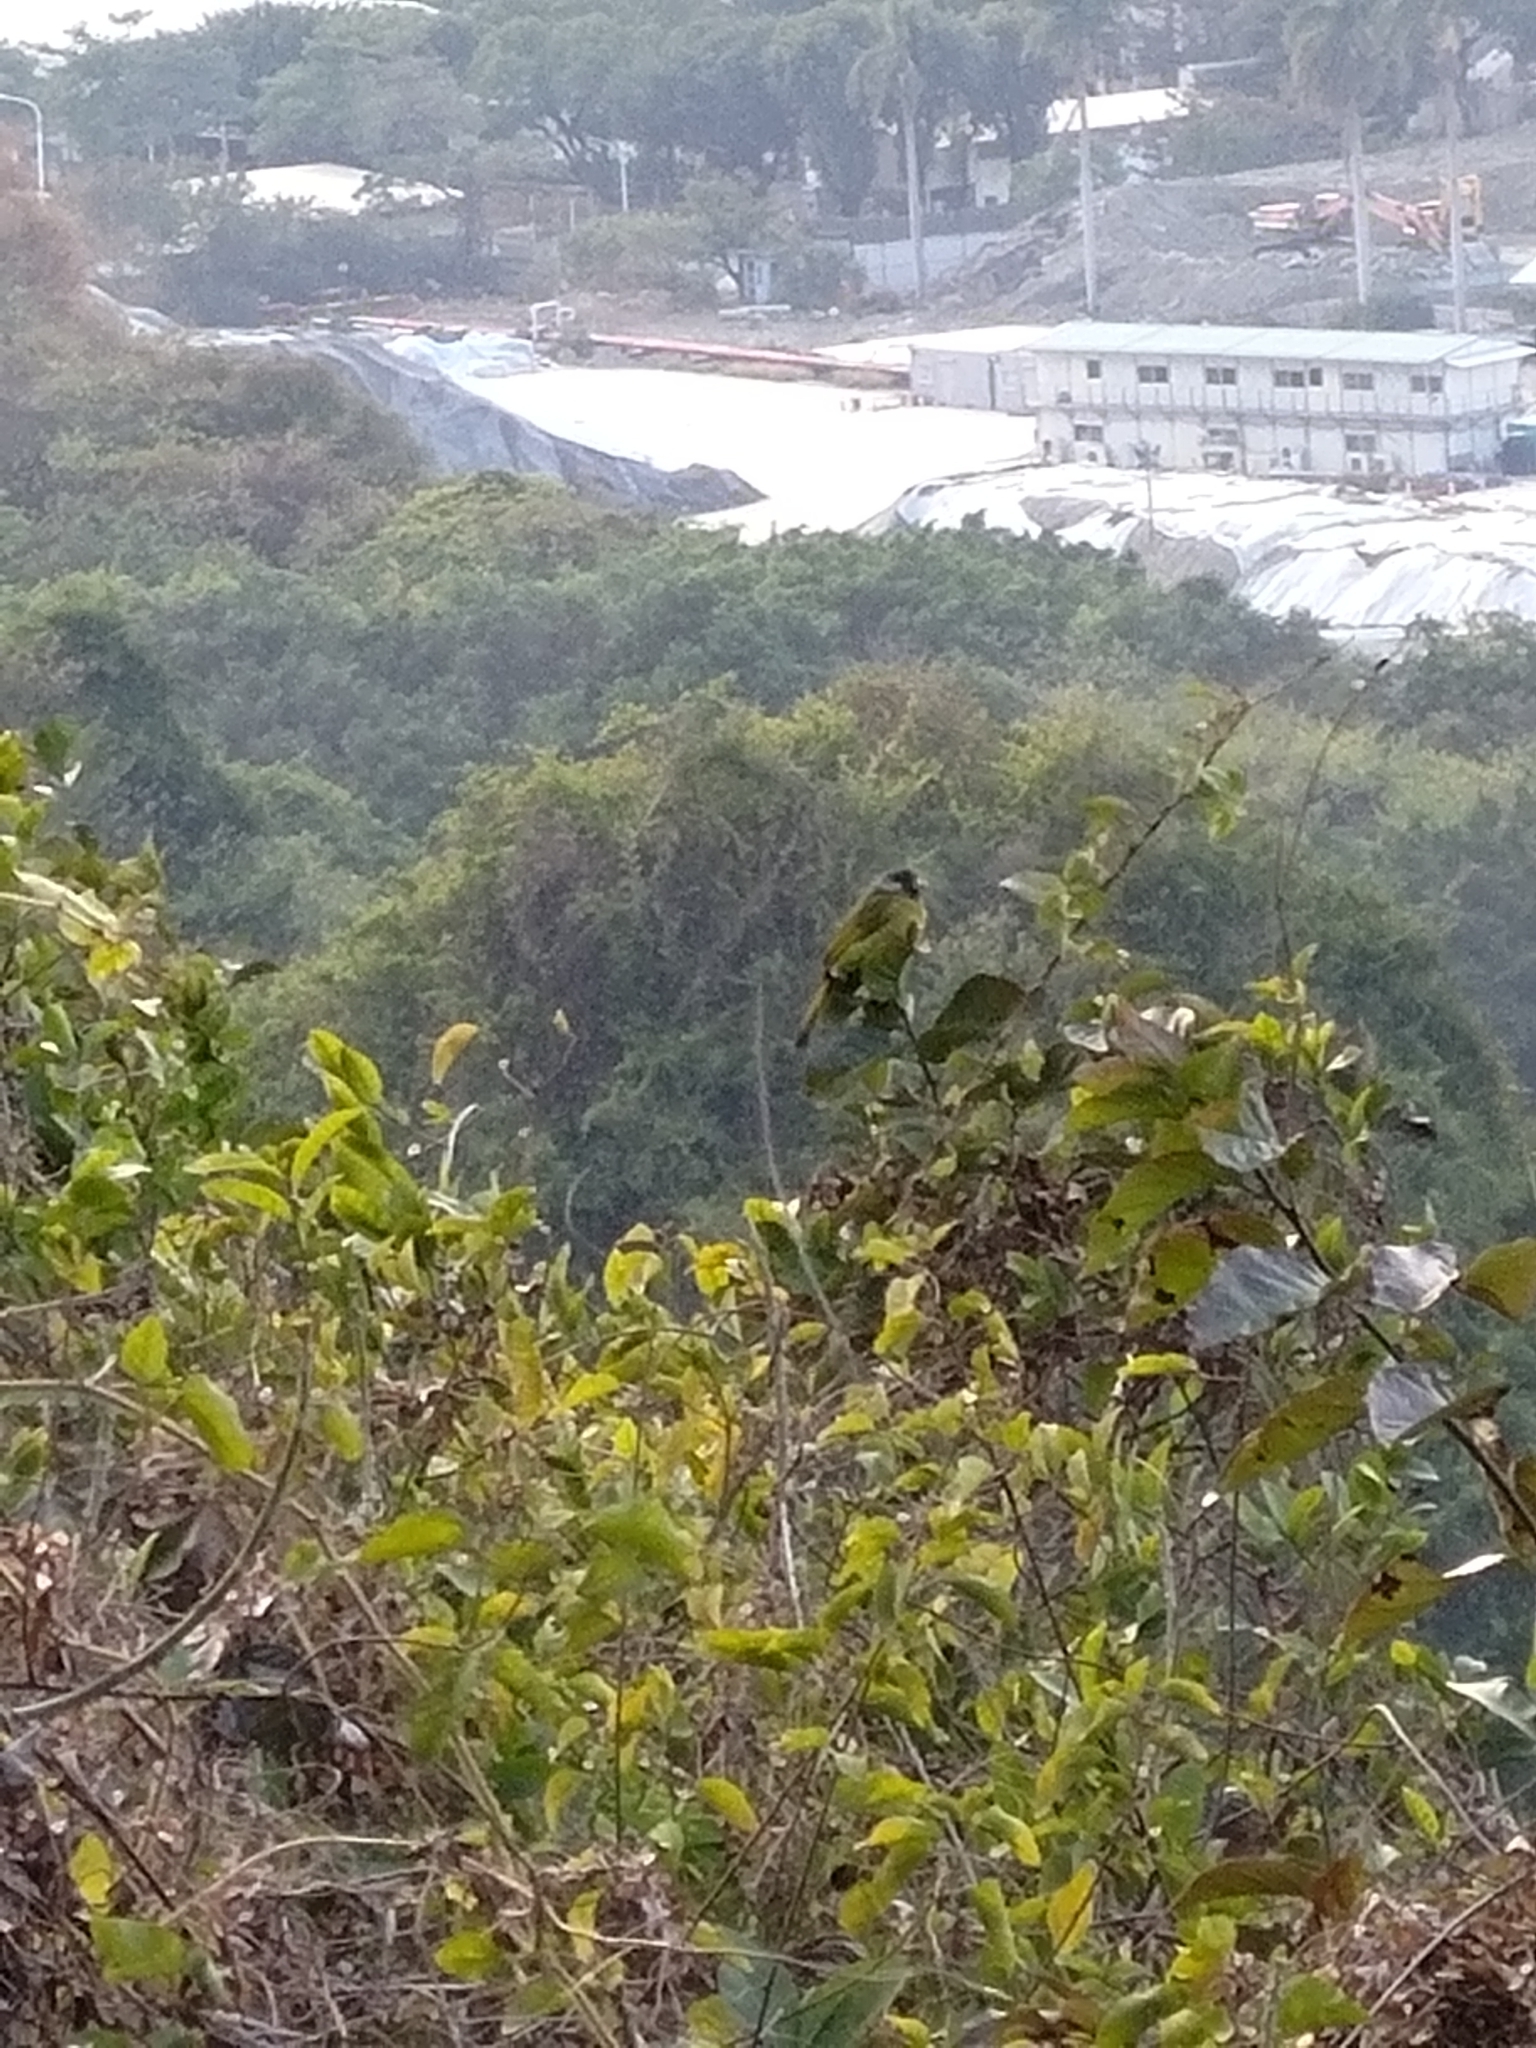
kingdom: Animalia
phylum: Chordata
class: Aves
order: Passeriformes
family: Pycnonotidae
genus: Spizixos
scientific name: Spizixos semitorques
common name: Collared finchbill
